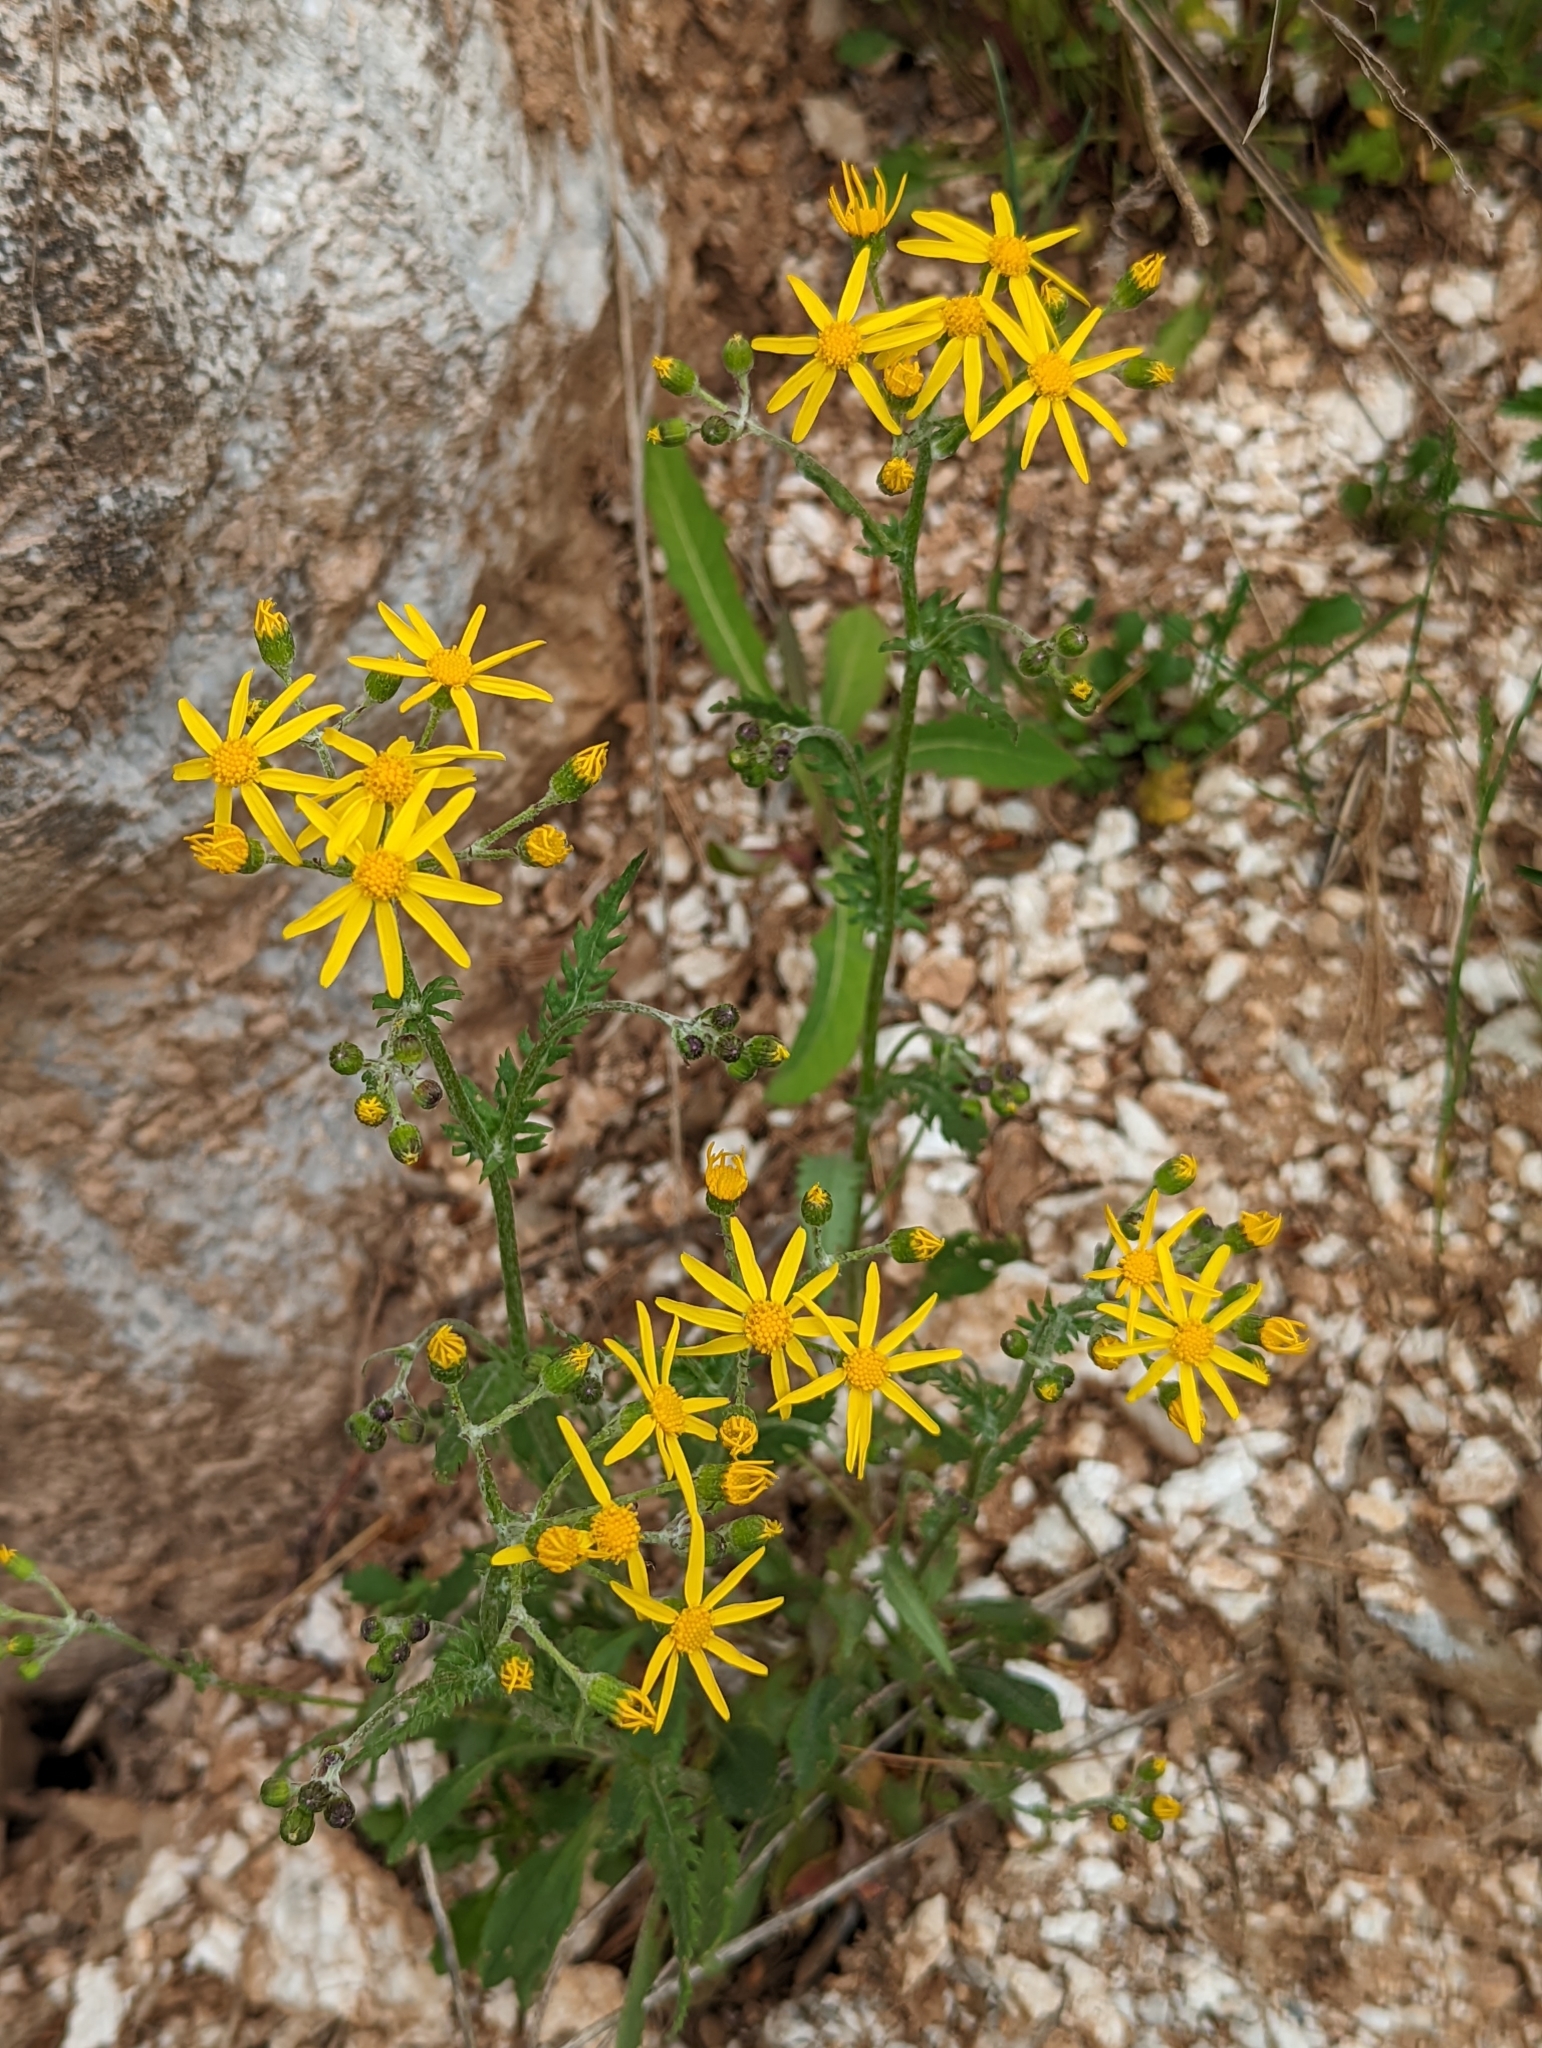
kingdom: Plantae
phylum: Tracheophyta
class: Magnoliopsida
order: Asterales
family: Asteraceae
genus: Packera
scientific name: Packera paupercula
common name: Balsam groundsel
